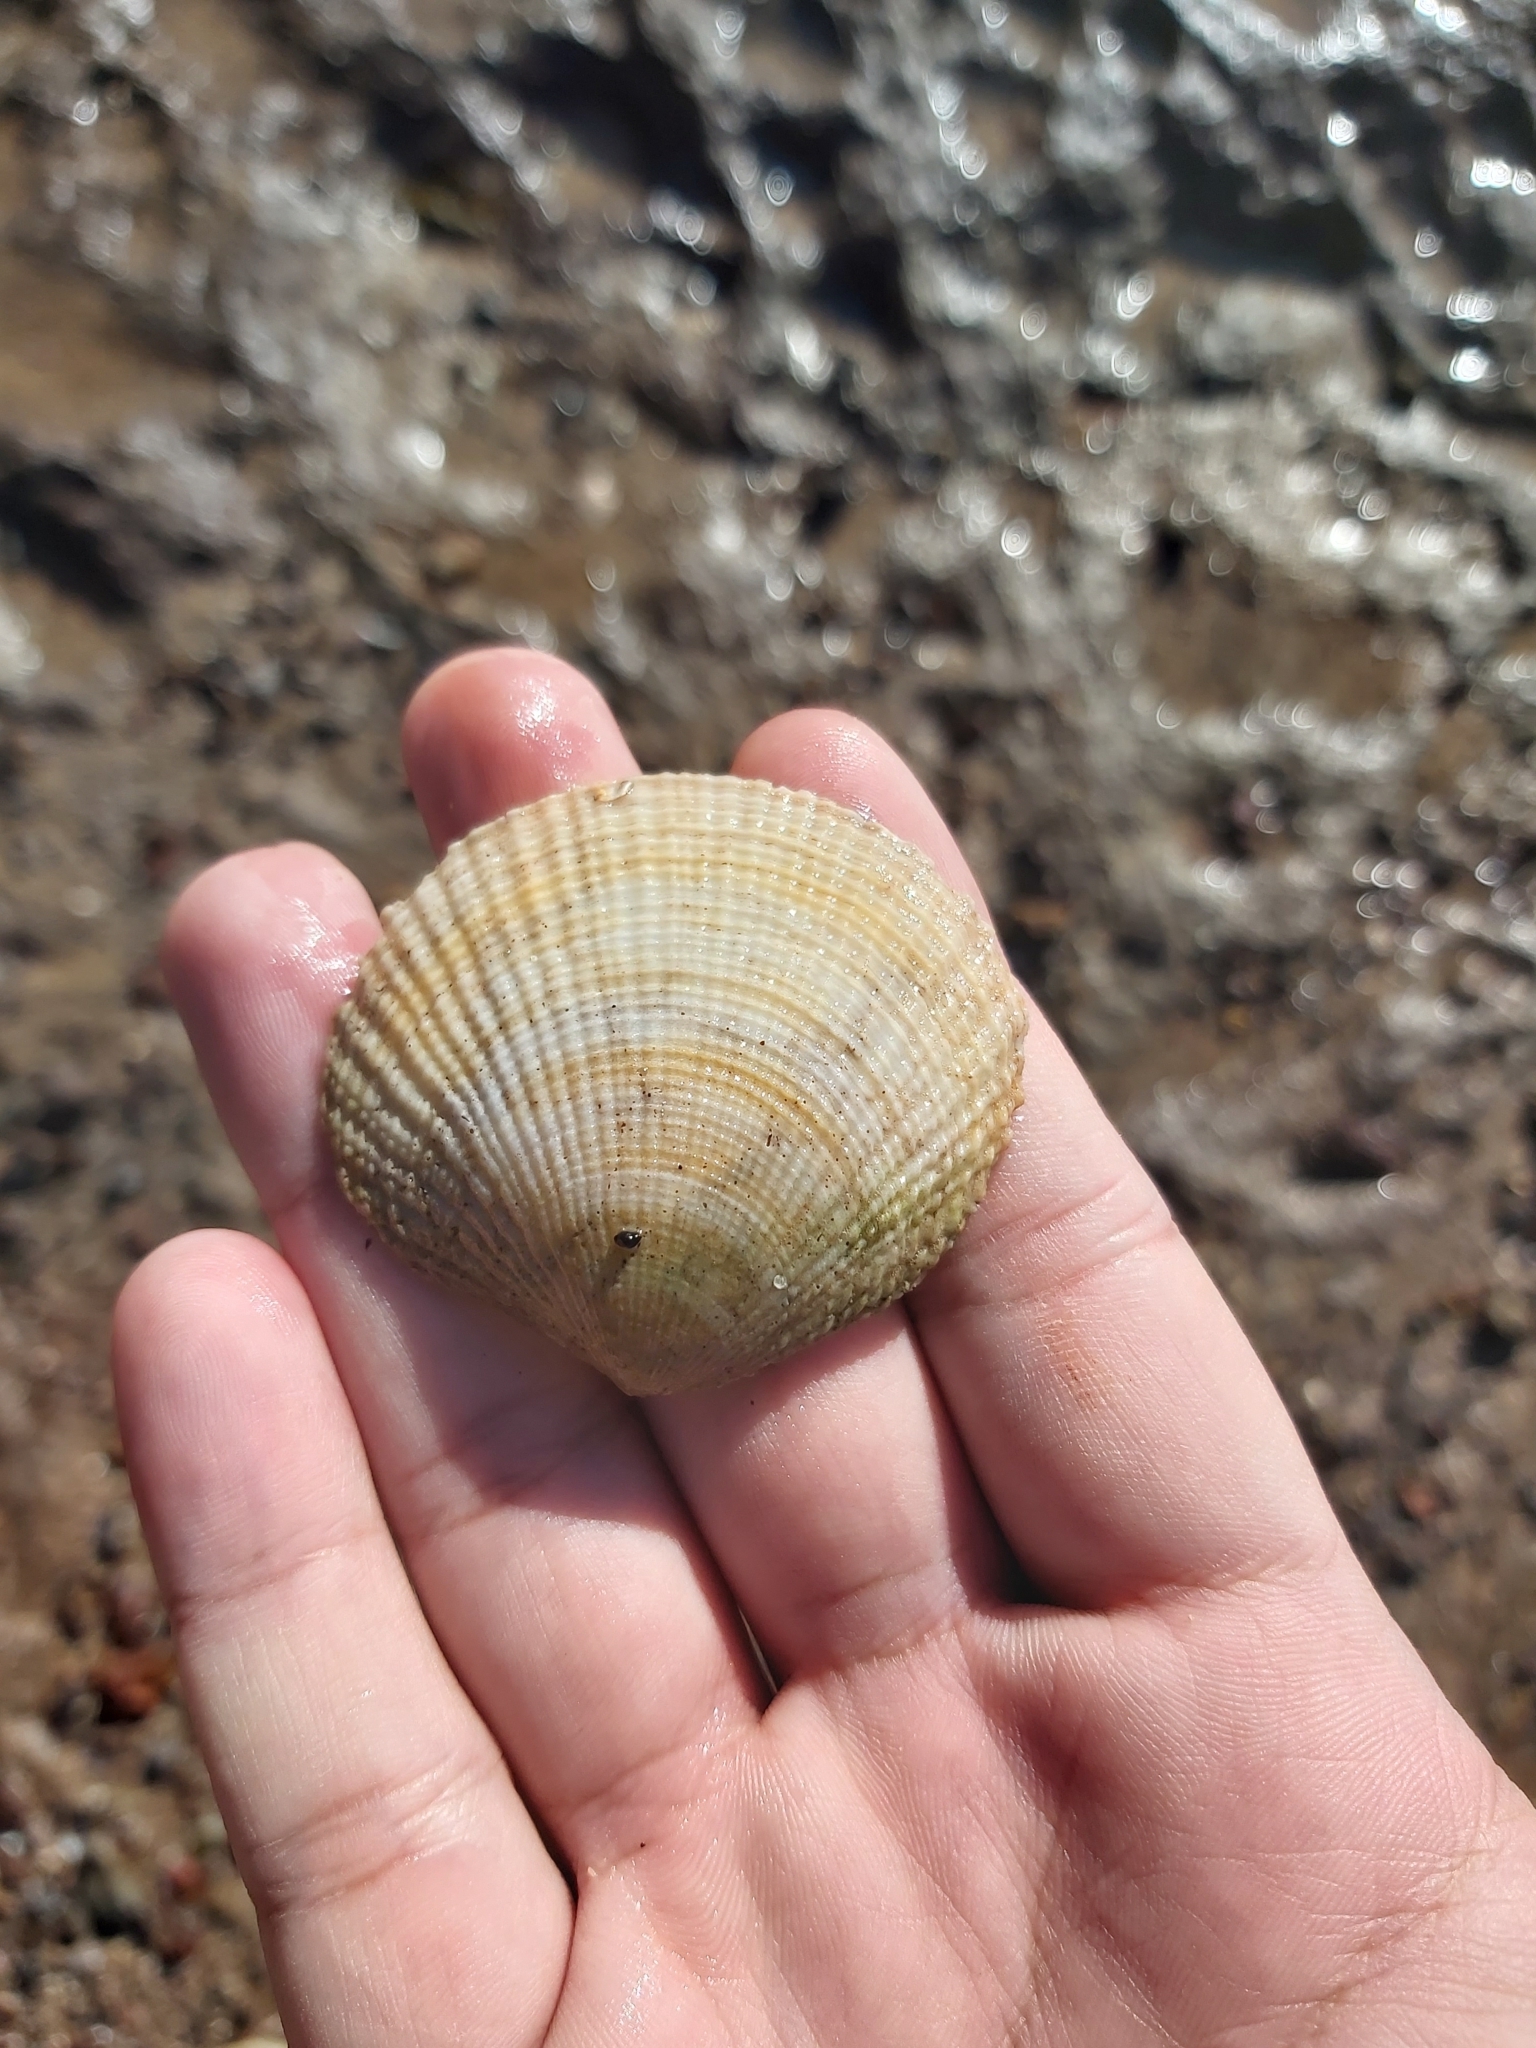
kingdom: Animalia
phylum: Mollusca
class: Bivalvia
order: Lucinida
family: Lucinidae
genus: Codakia
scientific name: Codakia rugifera
